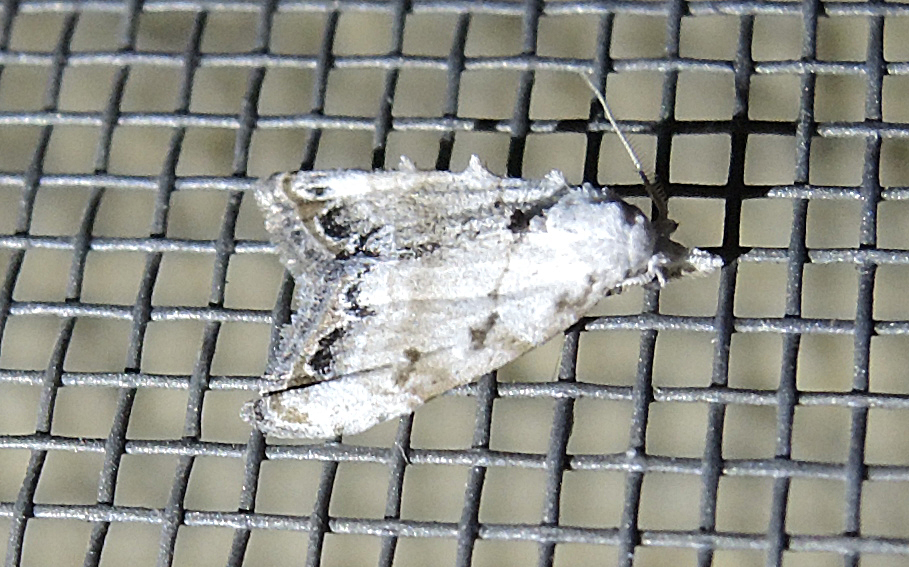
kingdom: Animalia
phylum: Arthropoda
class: Insecta
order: Lepidoptera
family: Nolidae
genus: Nola
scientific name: Nola chlamitulalis
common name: Jersey black arches
